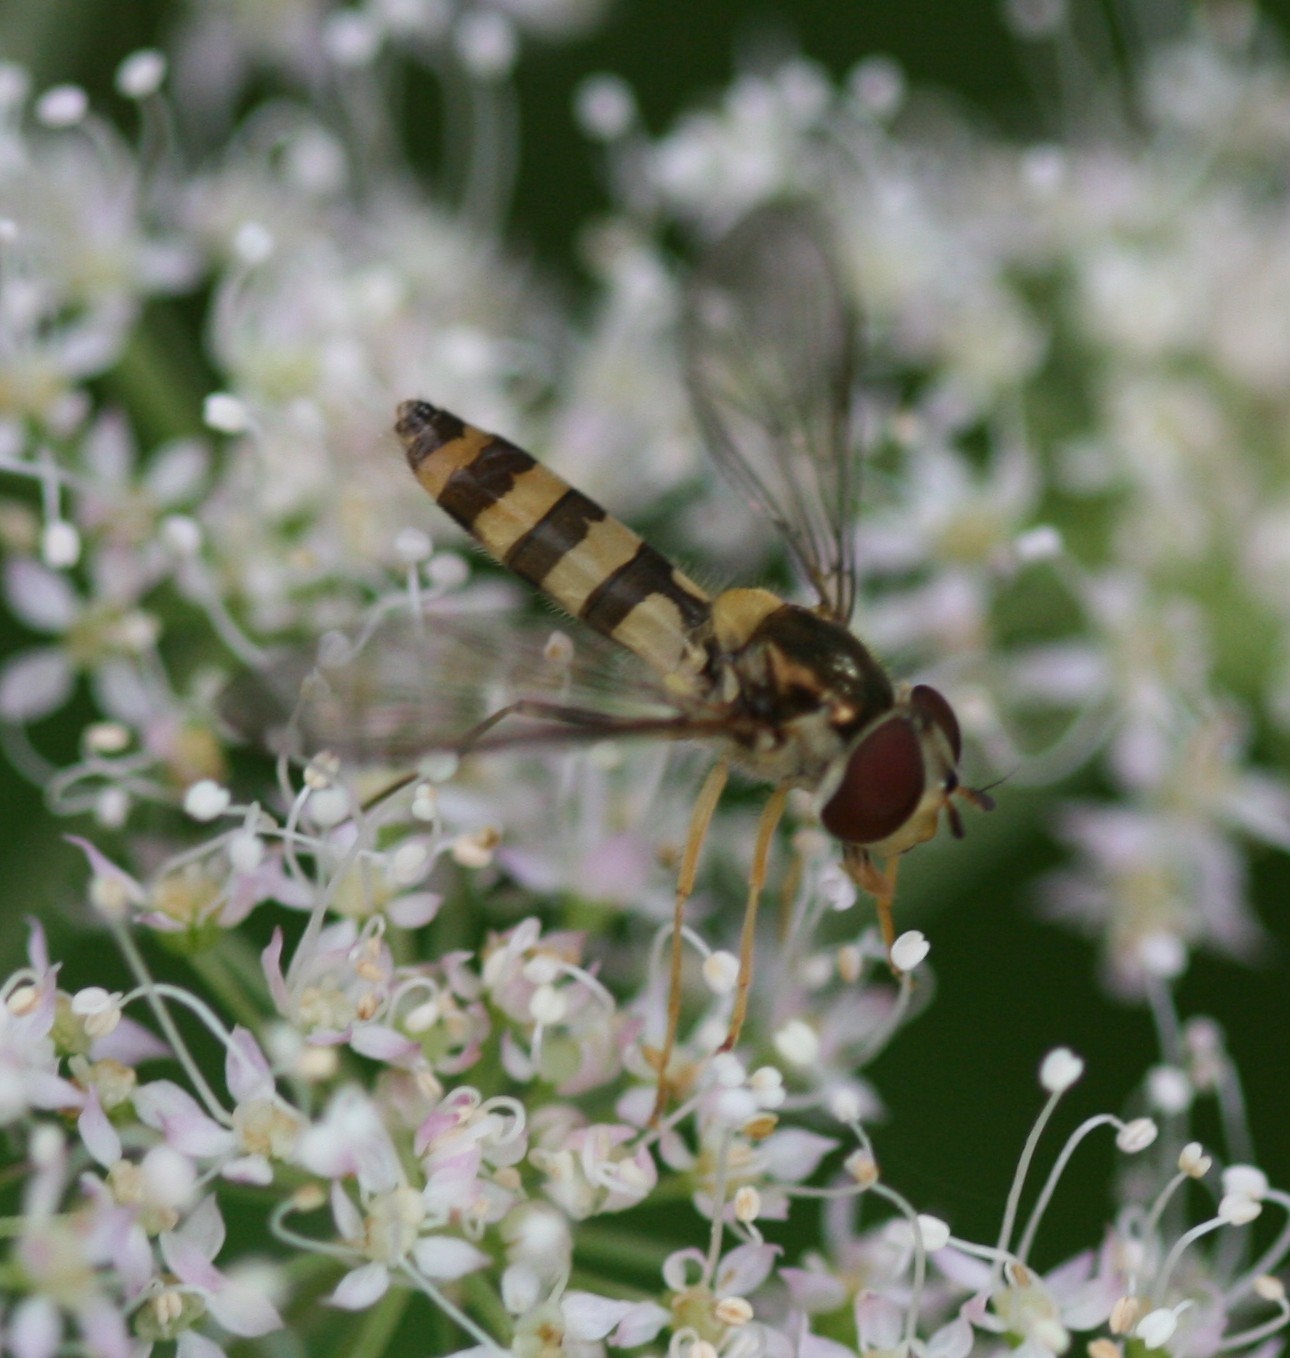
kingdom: Animalia
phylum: Arthropoda
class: Insecta
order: Diptera
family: Syrphidae
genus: Meliscaeva
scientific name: Meliscaeva cinctella
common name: American thintail fly
